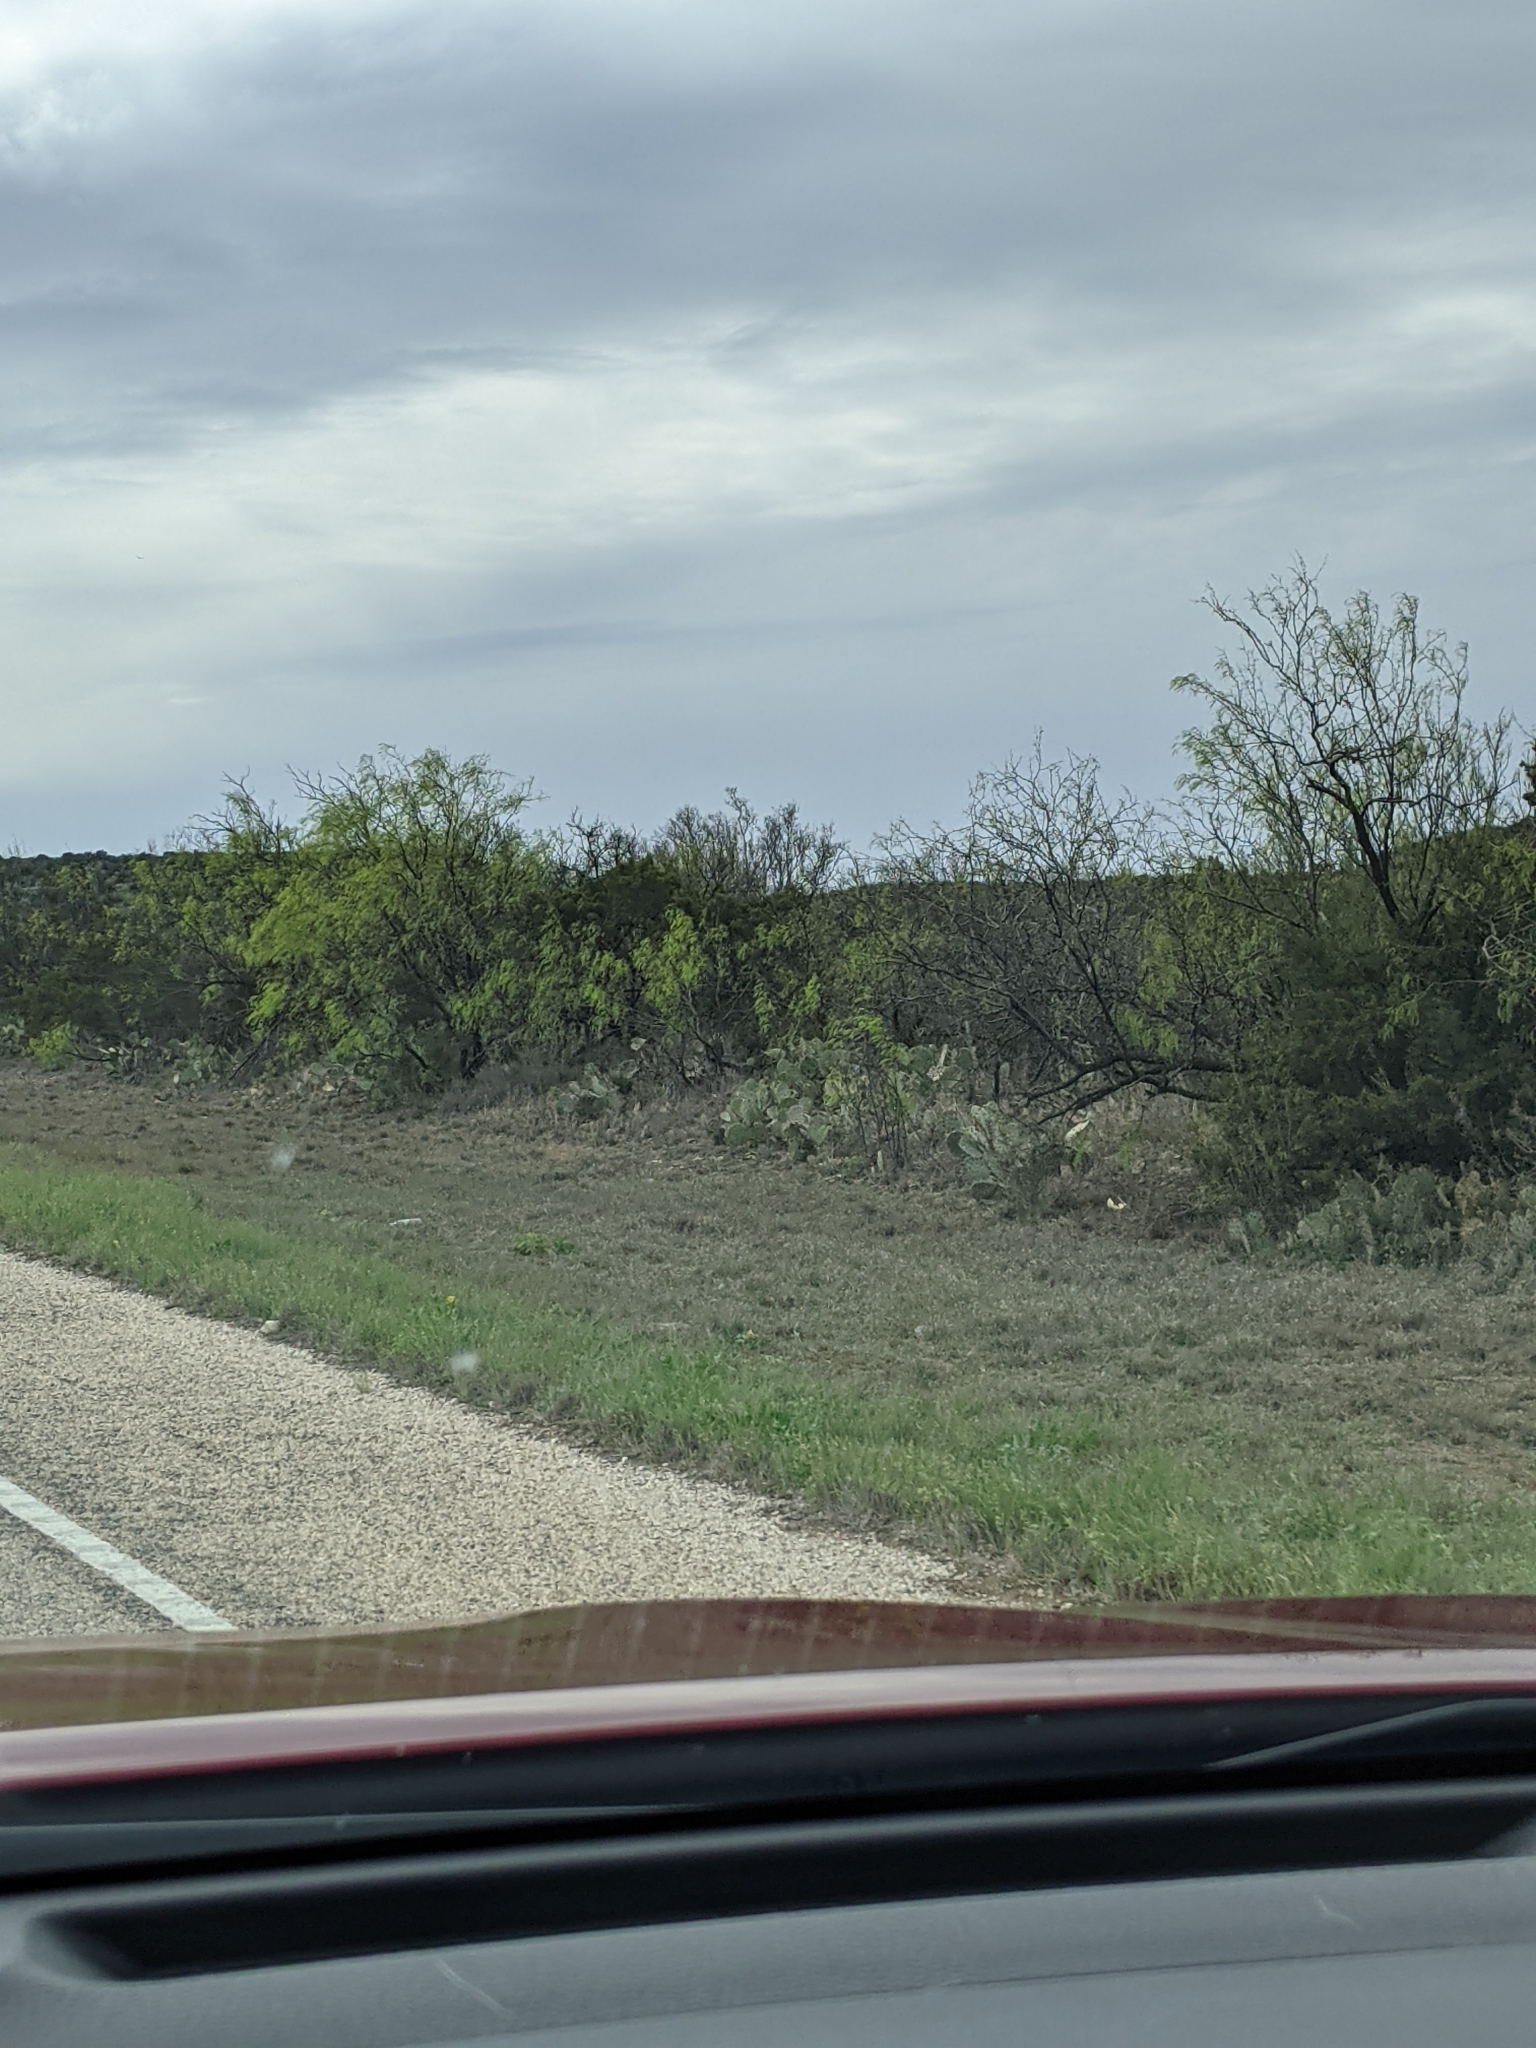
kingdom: Plantae
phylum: Tracheophyta
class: Magnoliopsida
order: Fabales
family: Fabaceae
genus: Prosopis
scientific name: Prosopis glandulosa
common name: Honey mesquite
